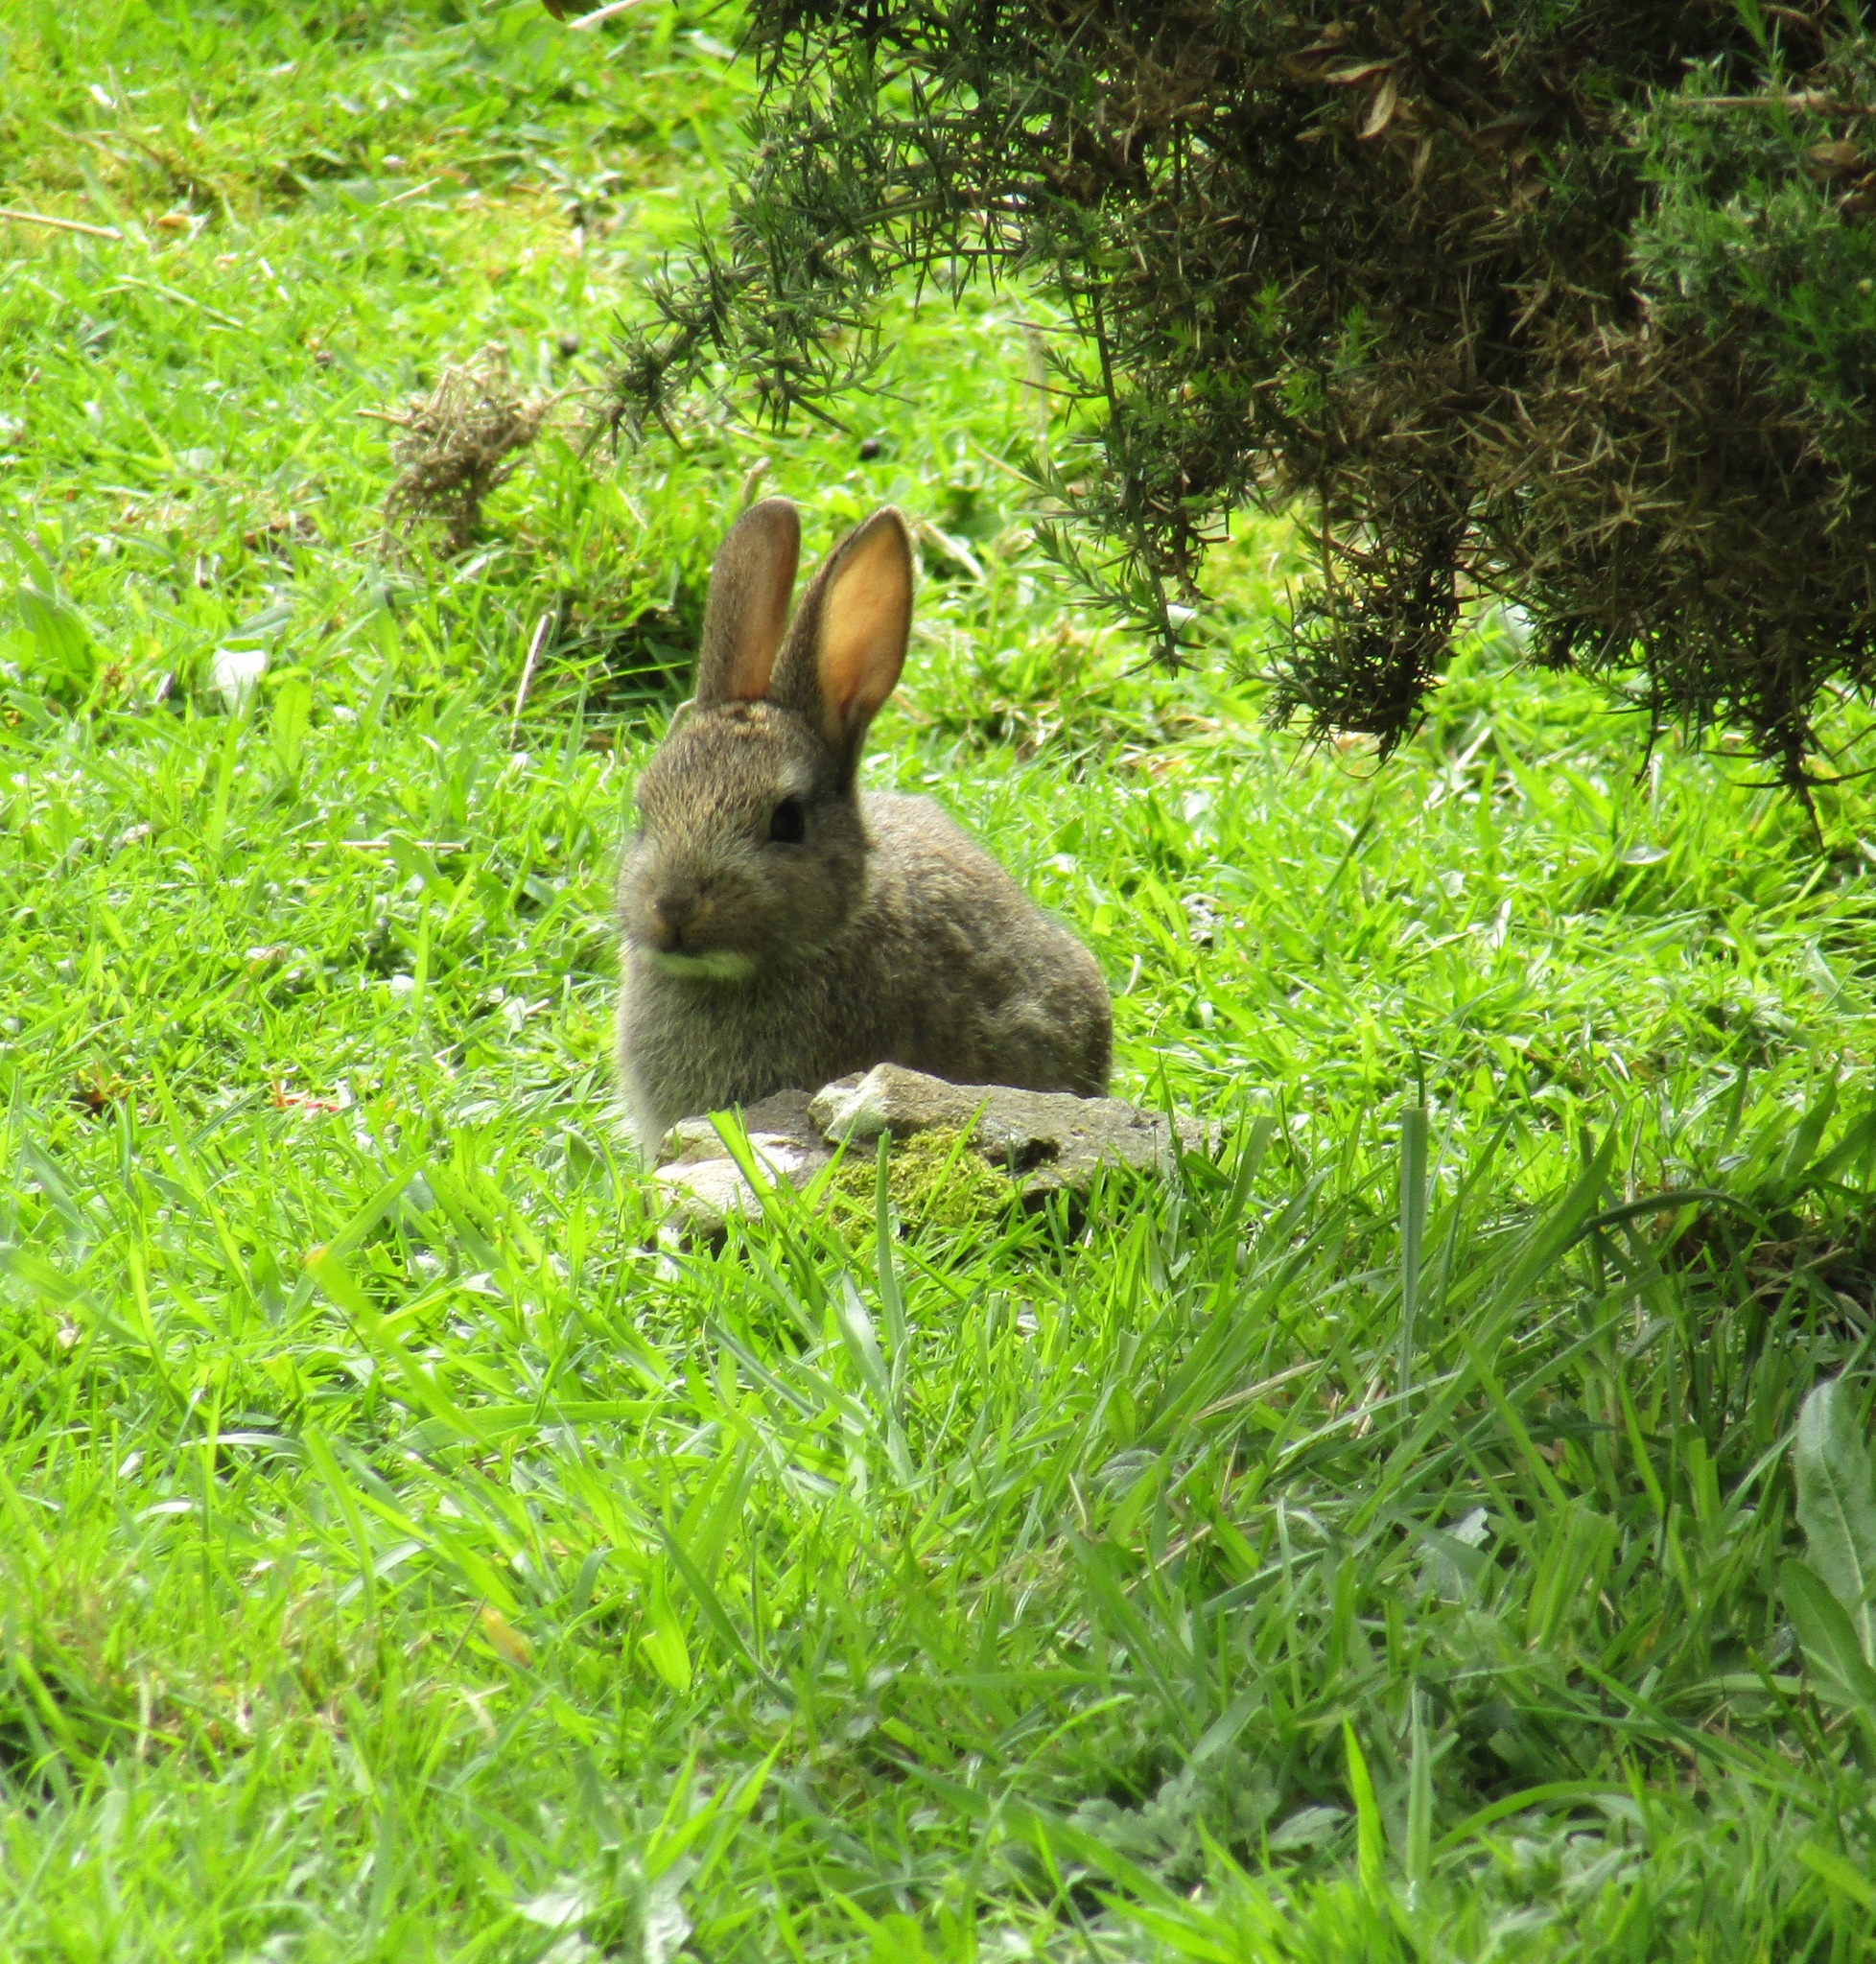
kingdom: Animalia
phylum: Chordata
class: Mammalia
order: Lagomorpha
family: Leporidae
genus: Oryctolagus
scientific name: Oryctolagus cuniculus
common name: European rabbit
